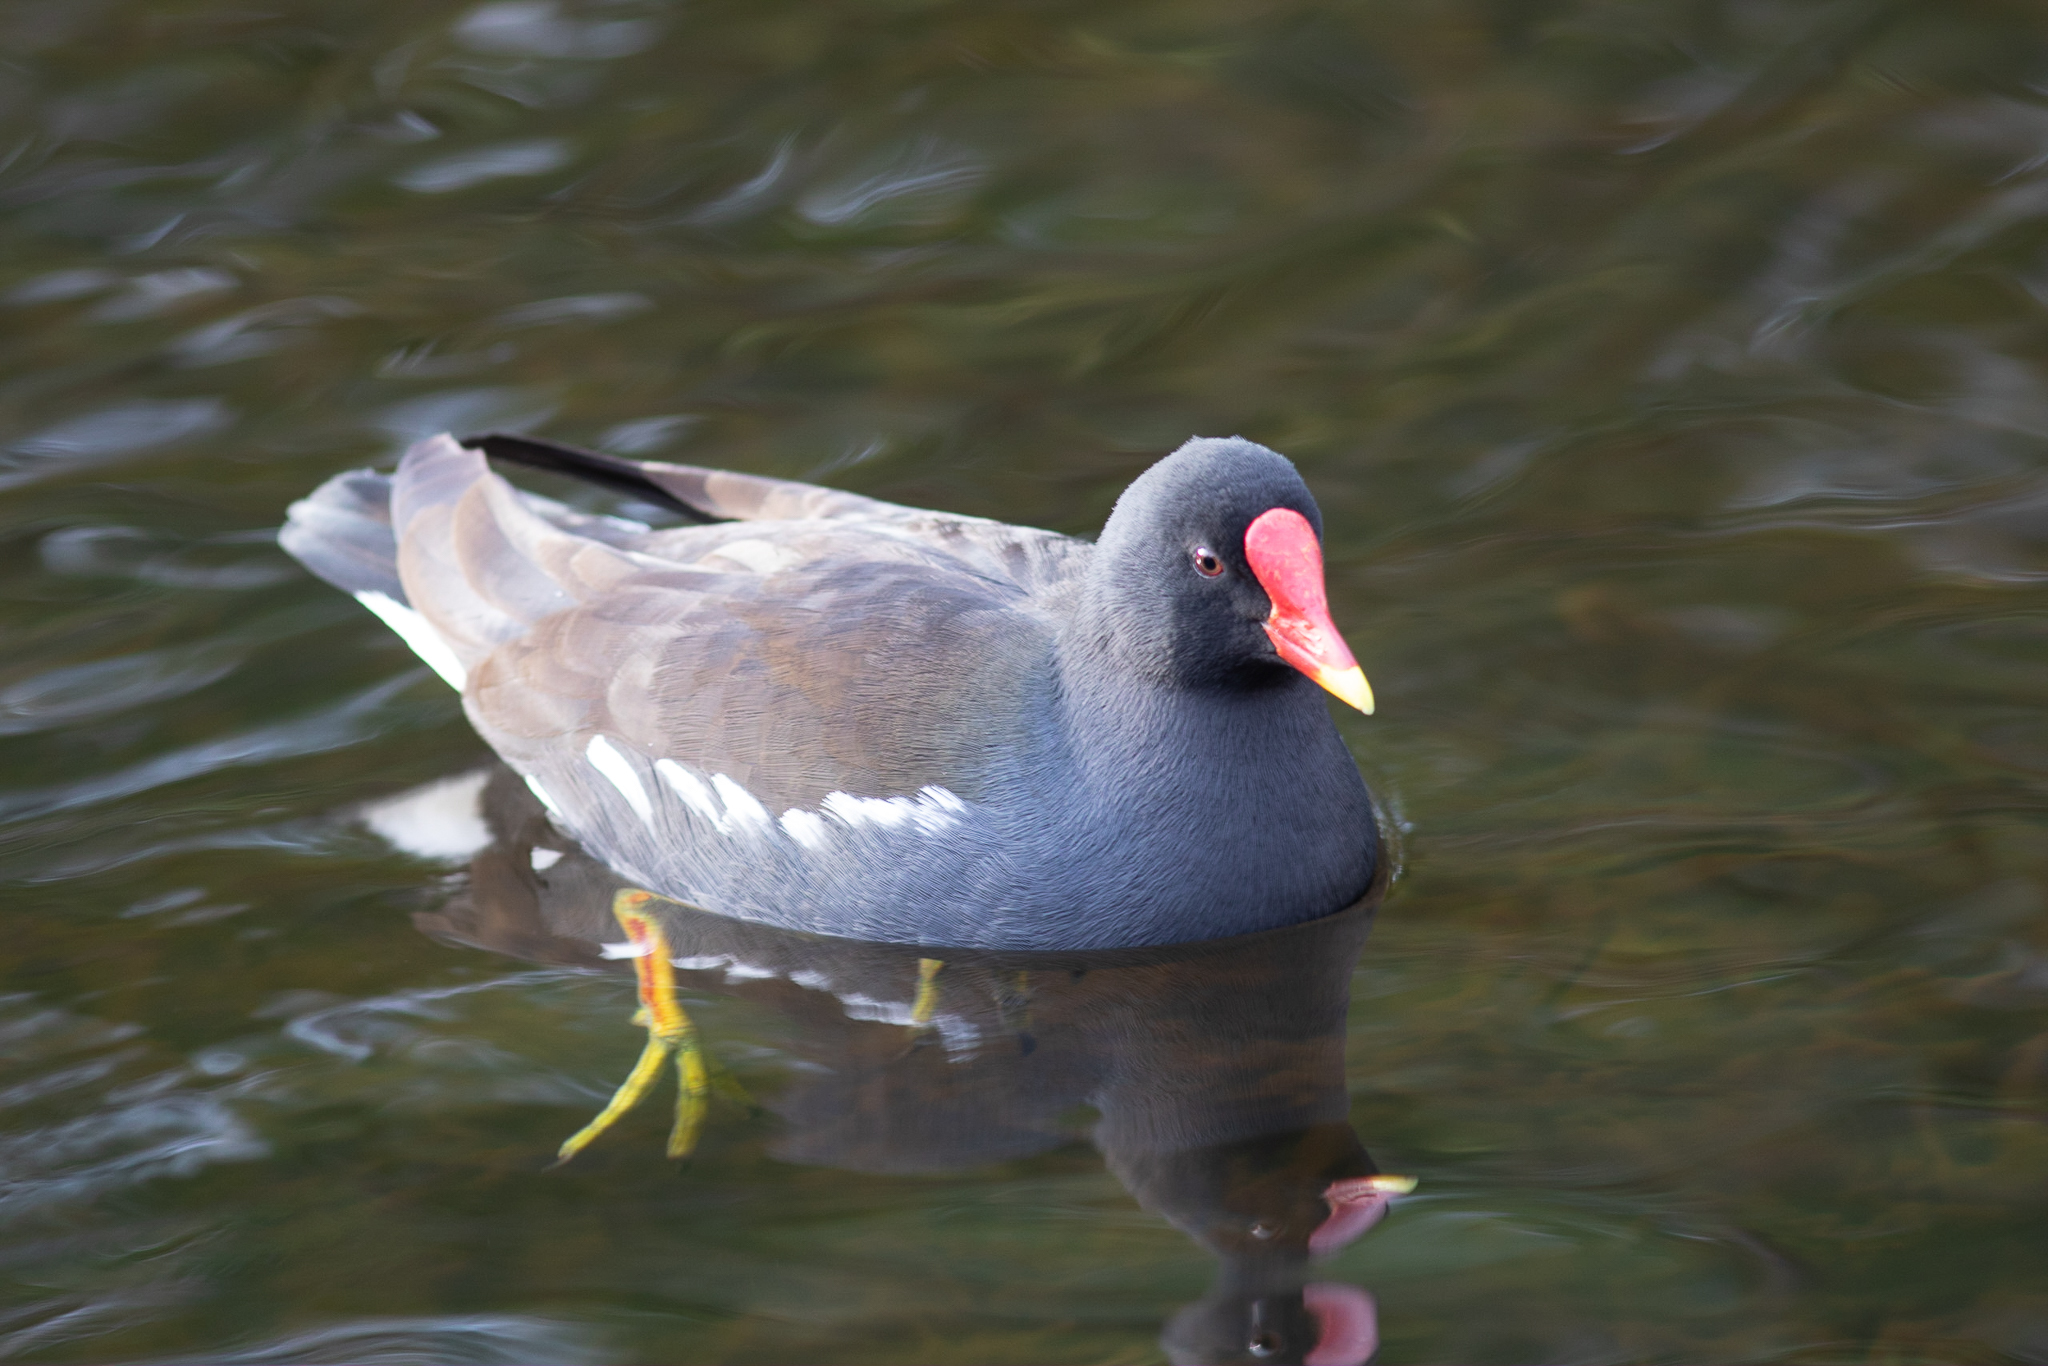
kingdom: Animalia
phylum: Chordata
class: Aves
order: Gruiformes
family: Rallidae
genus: Gallinula
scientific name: Gallinula chloropus
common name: Common moorhen
